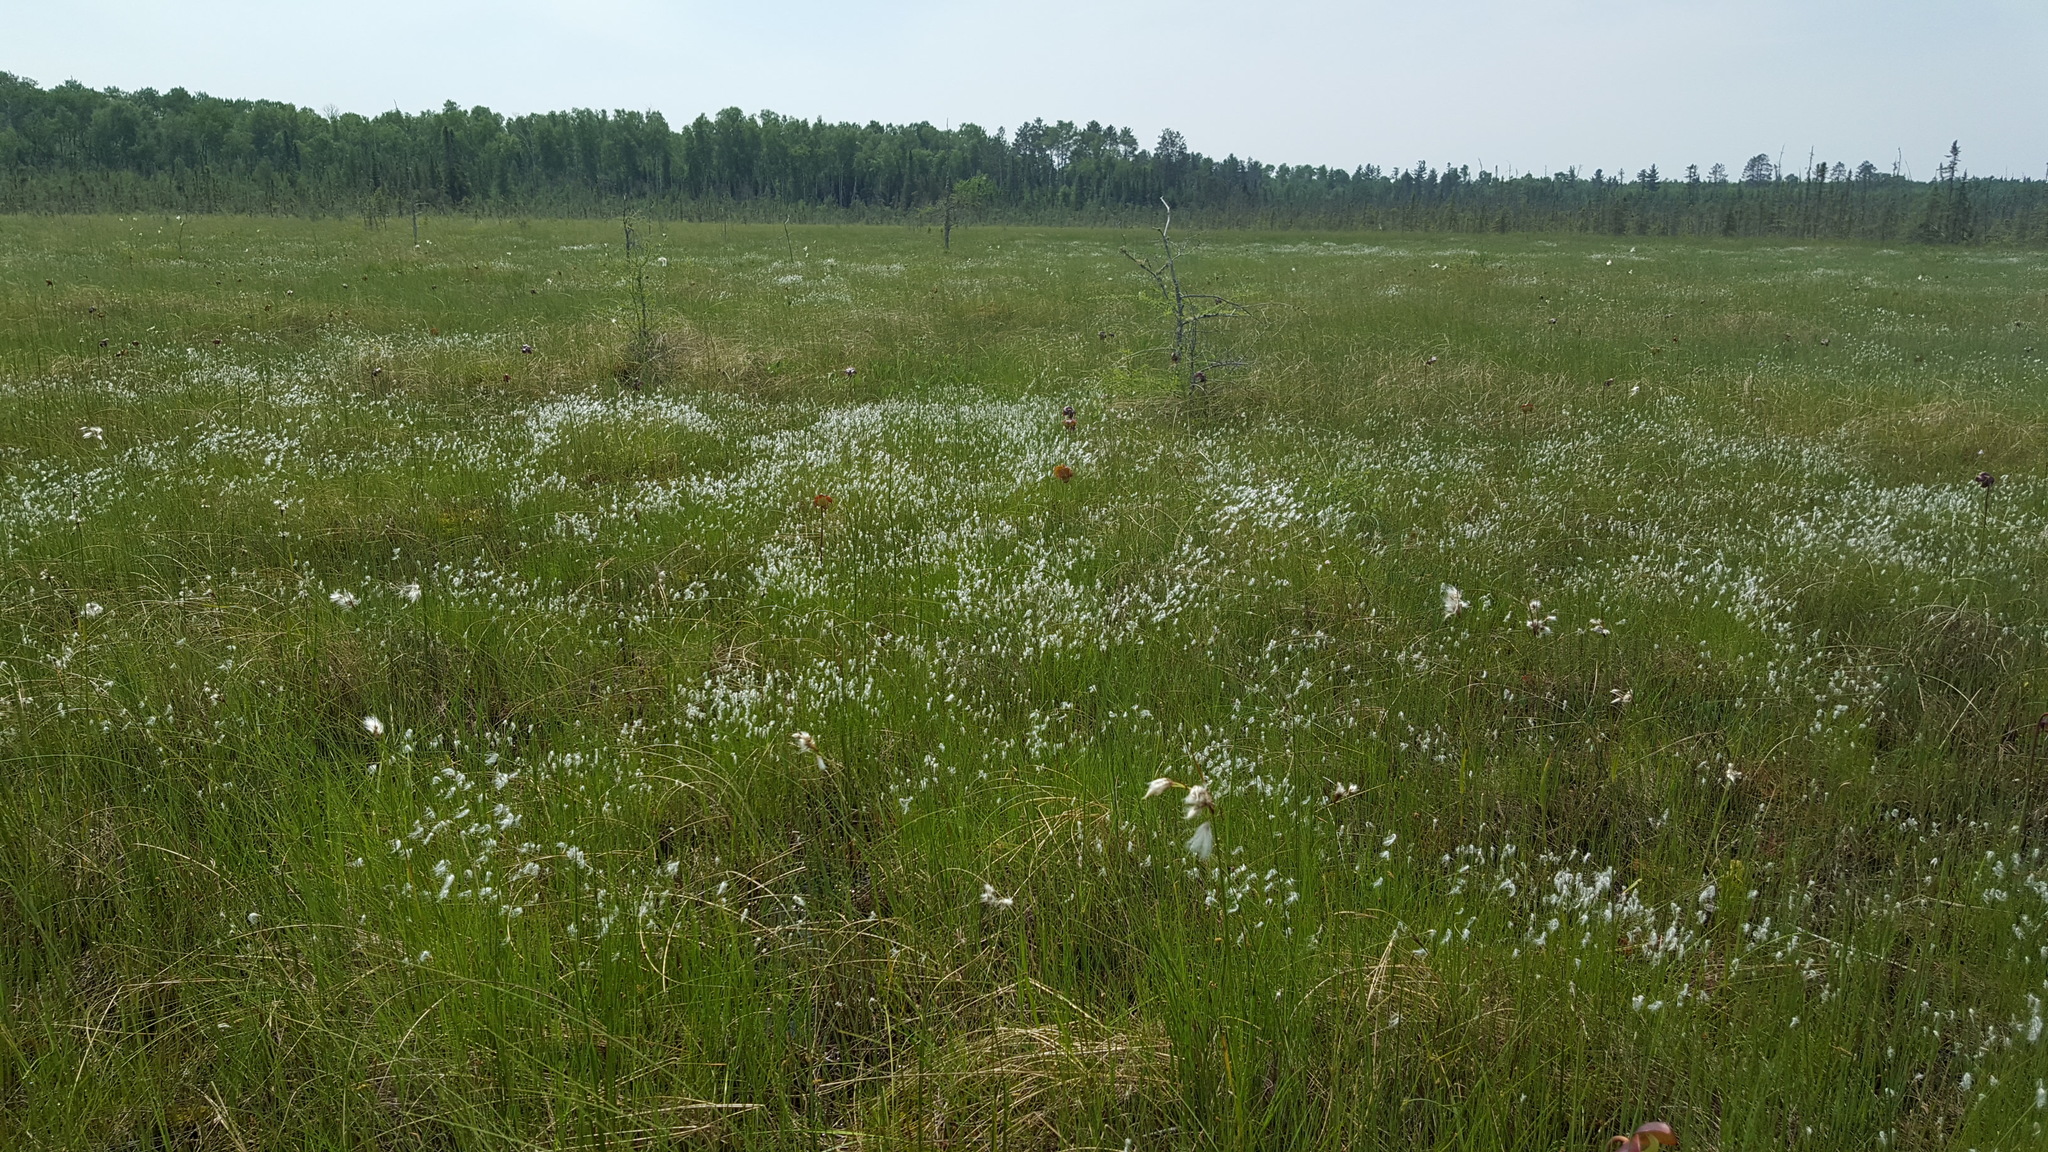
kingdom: Plantae
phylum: Tracheophyta
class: Liliopsida
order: Poales
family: Cyperaceae
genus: Trichophorum
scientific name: Trichophorum alpinum
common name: Alpine bulrush
